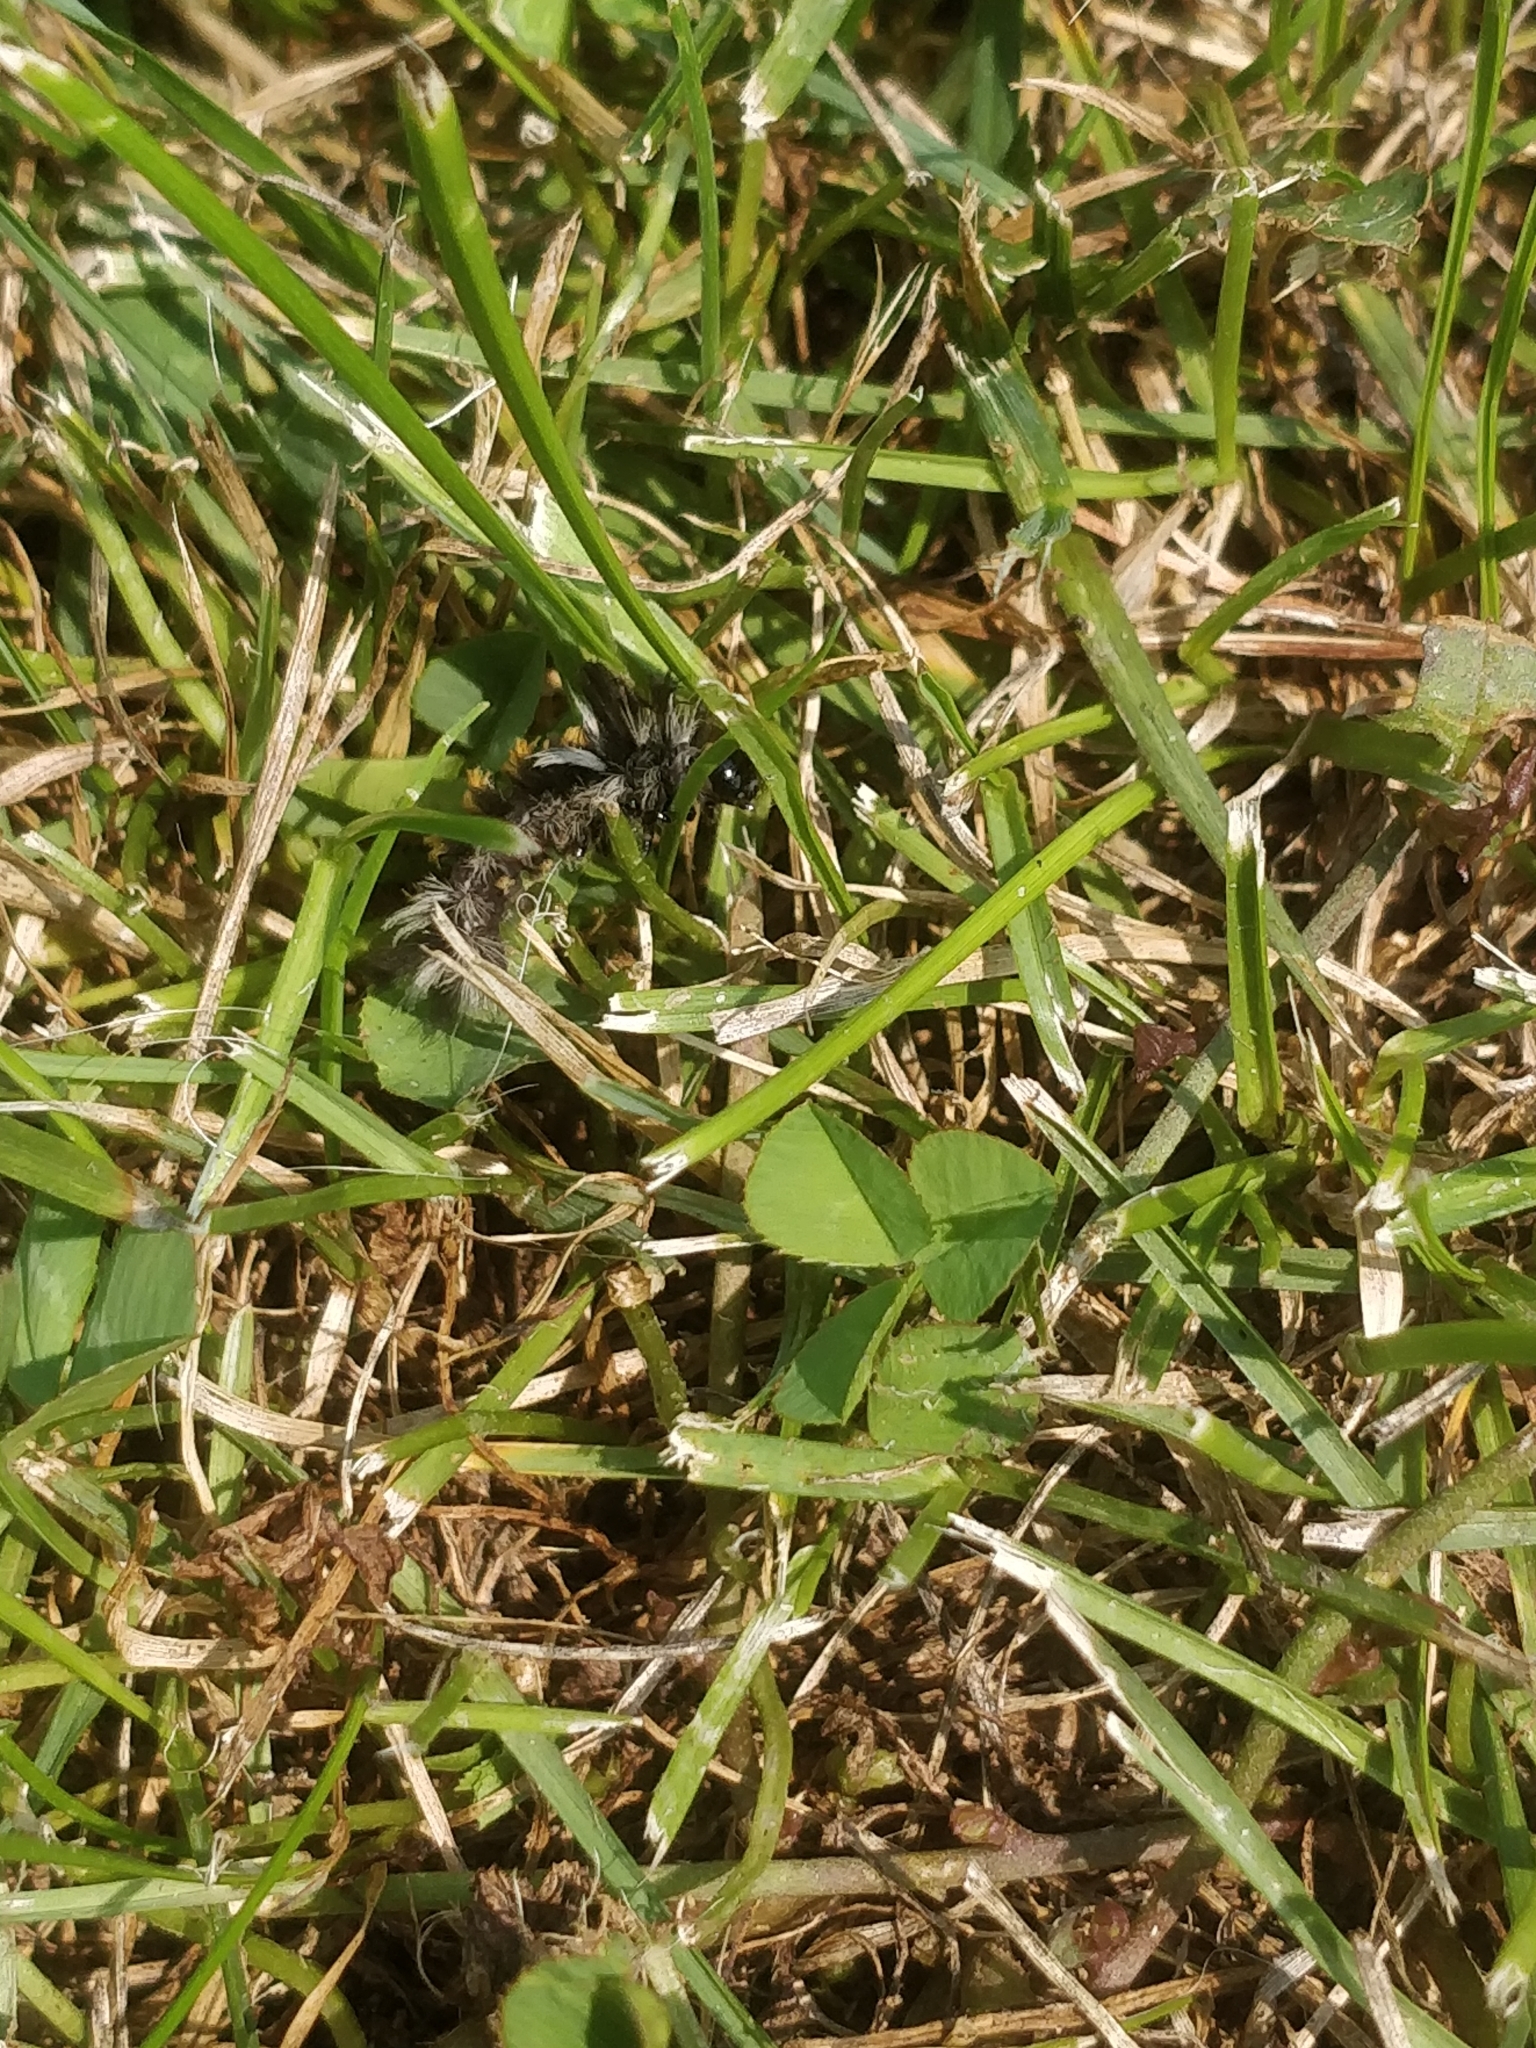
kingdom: Animalia
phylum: Arthropoda
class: Insecta
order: Lepidoptera
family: Erebidae
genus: Euchaetes
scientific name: Euchaetes egle
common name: Milkweed tussock moth
